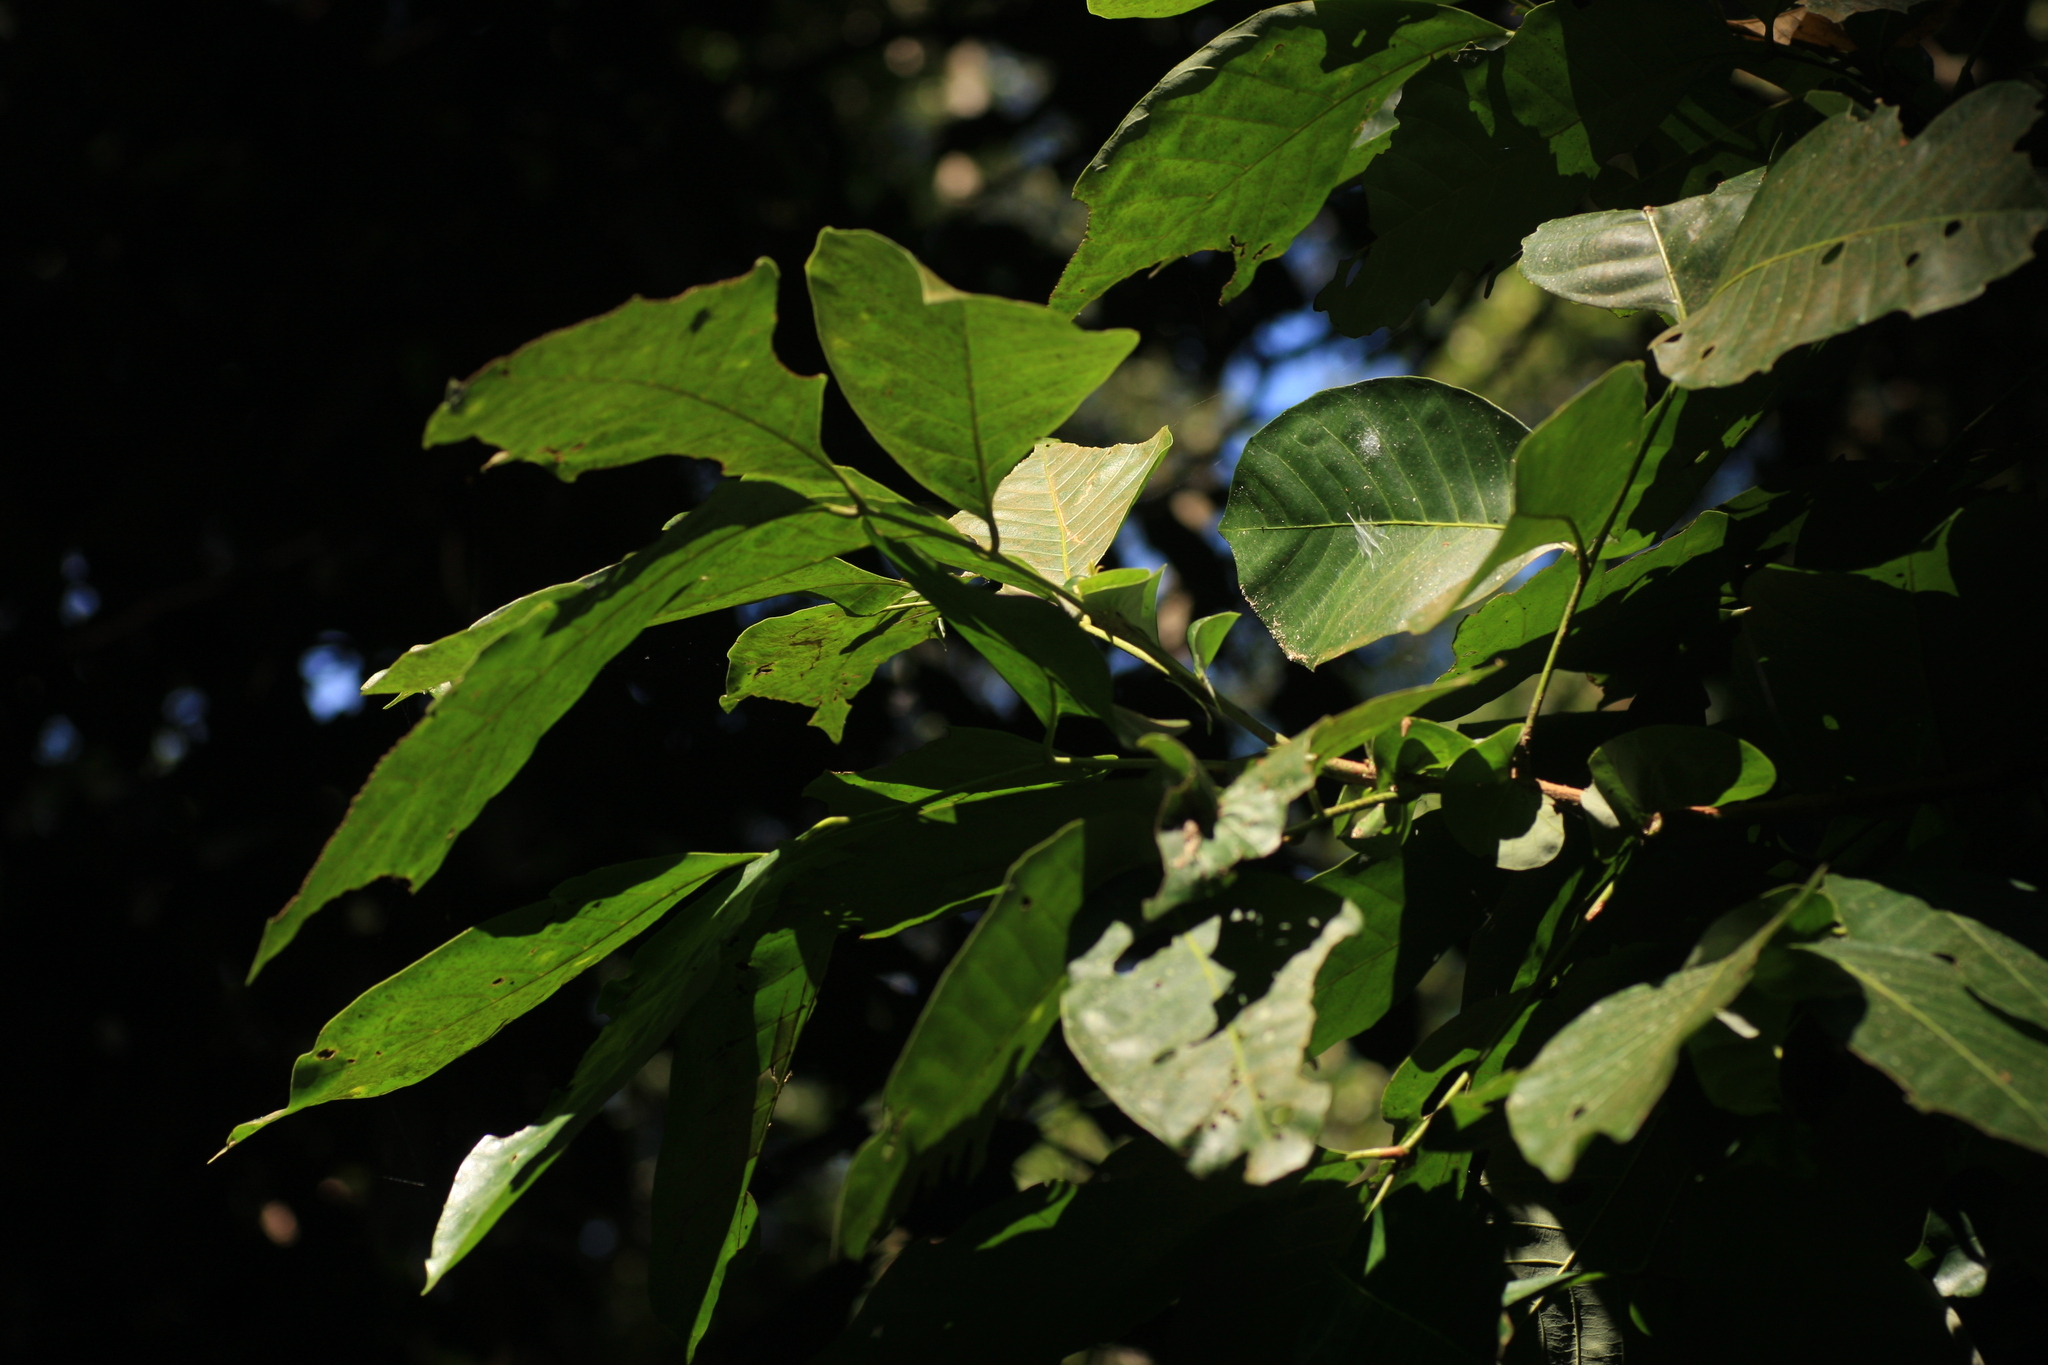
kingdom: Plantae
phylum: Tracheophyta
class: Magnoliopsida
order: Sapindales
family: Sapindaceae
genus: Otonephelium
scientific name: Otonephelium stipulaceum
